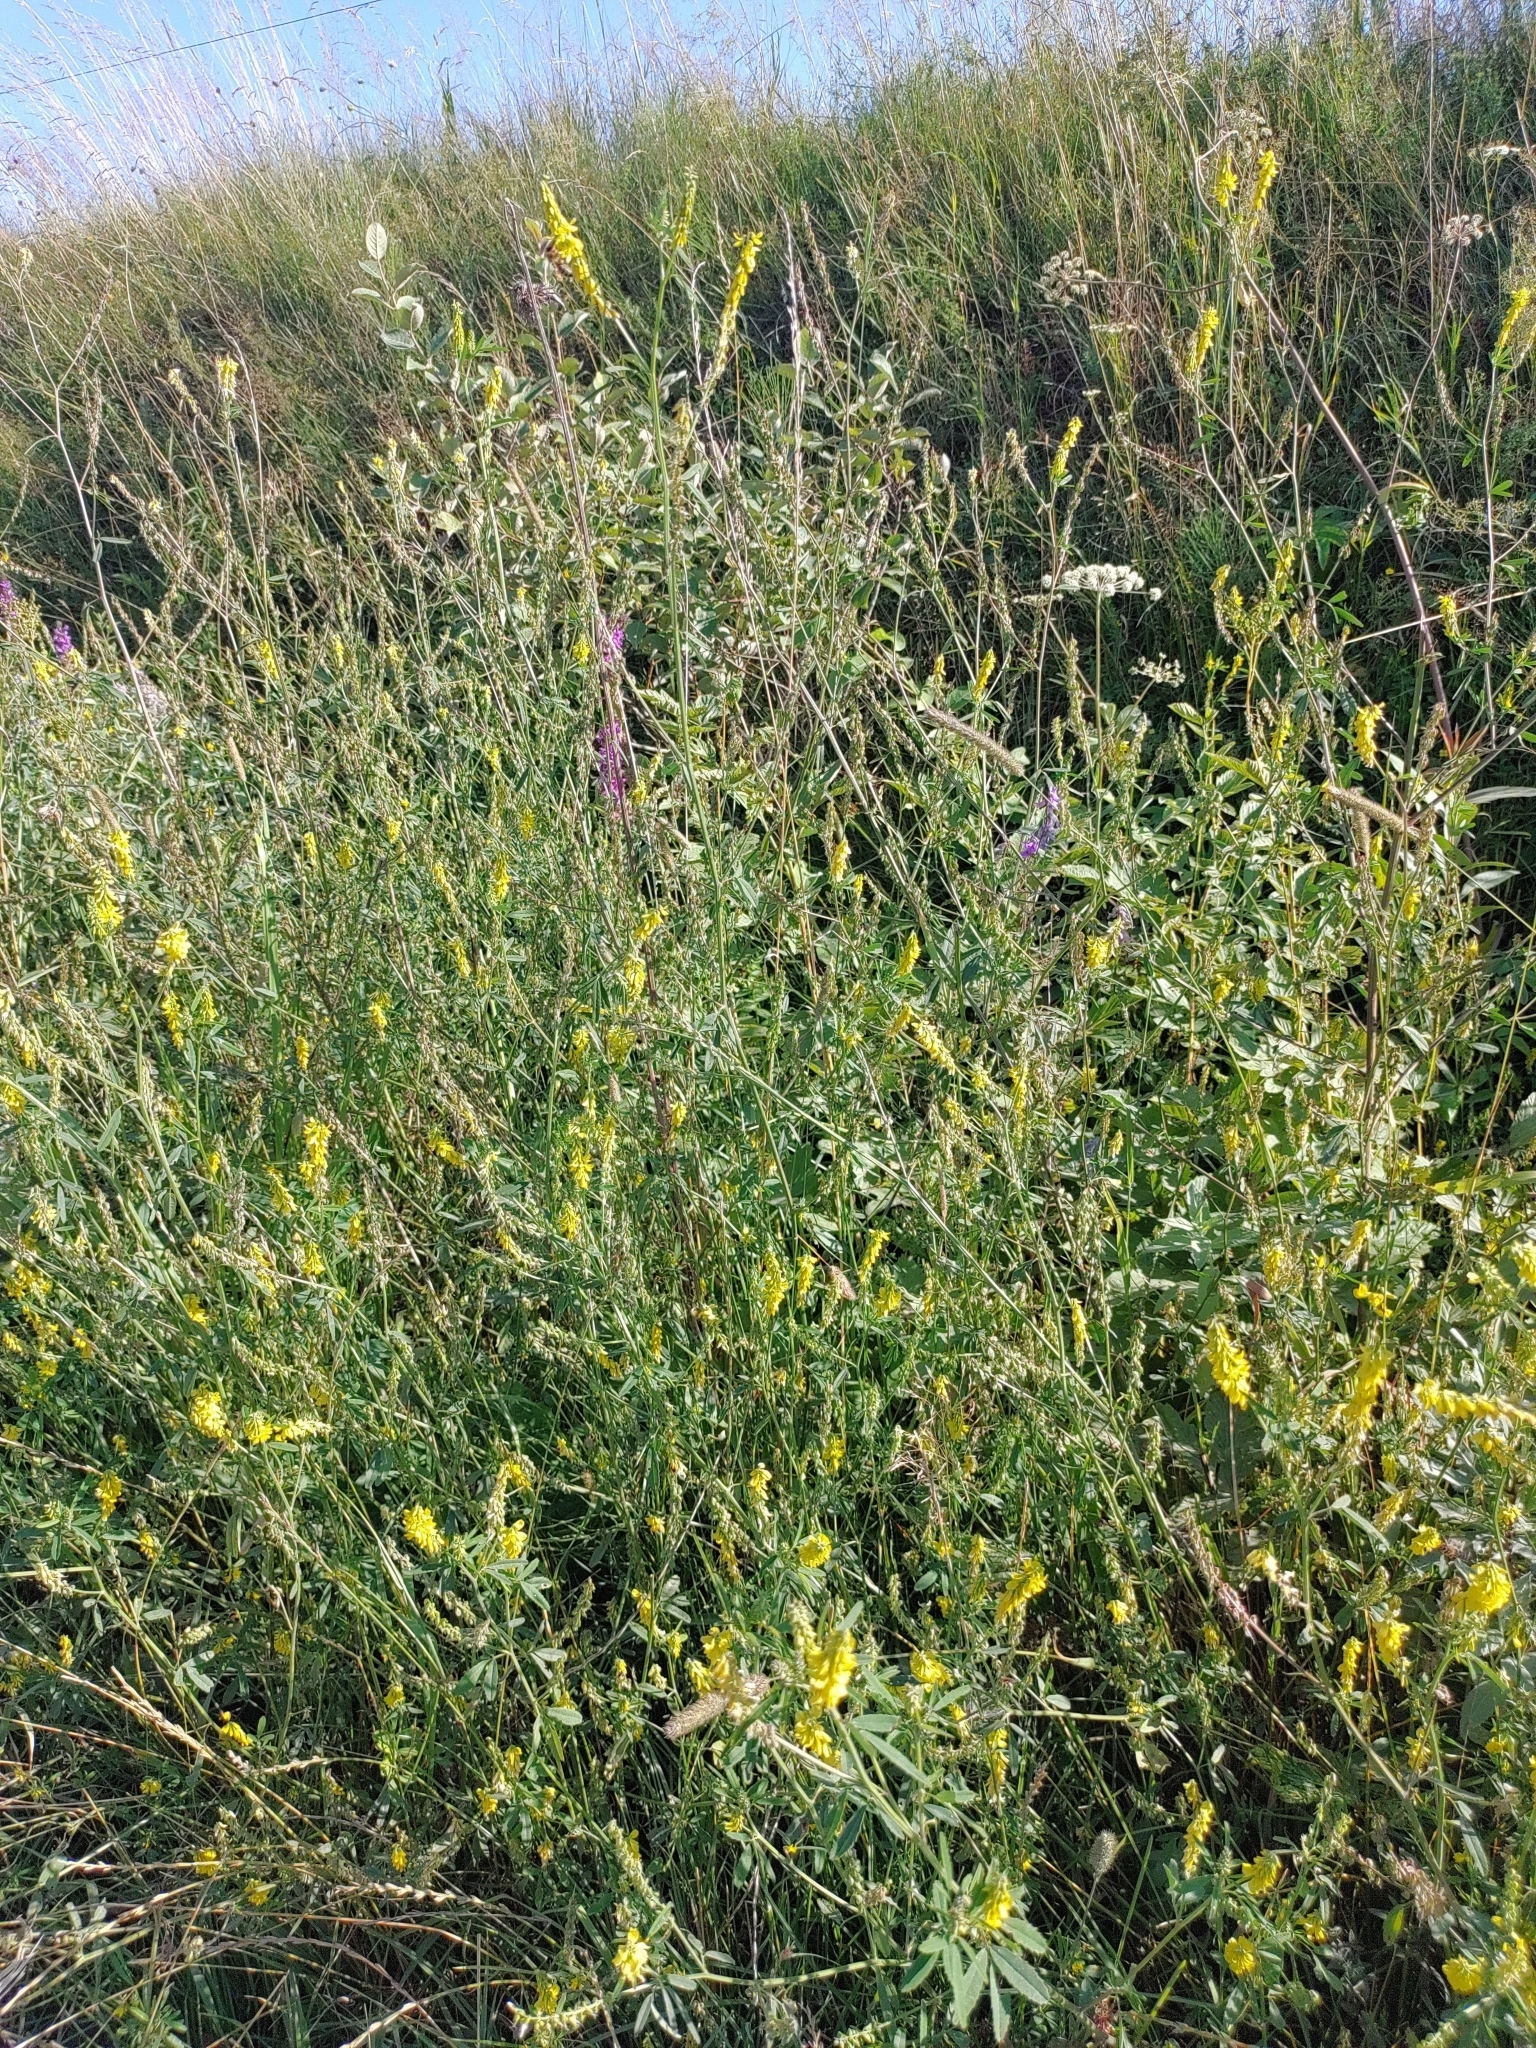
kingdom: Plantae
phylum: Tracheophyta
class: Magnoliopsida
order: Fabales
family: Fabaceae
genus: Melilotus
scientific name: Melilotus officinalis
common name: Sweetclover
